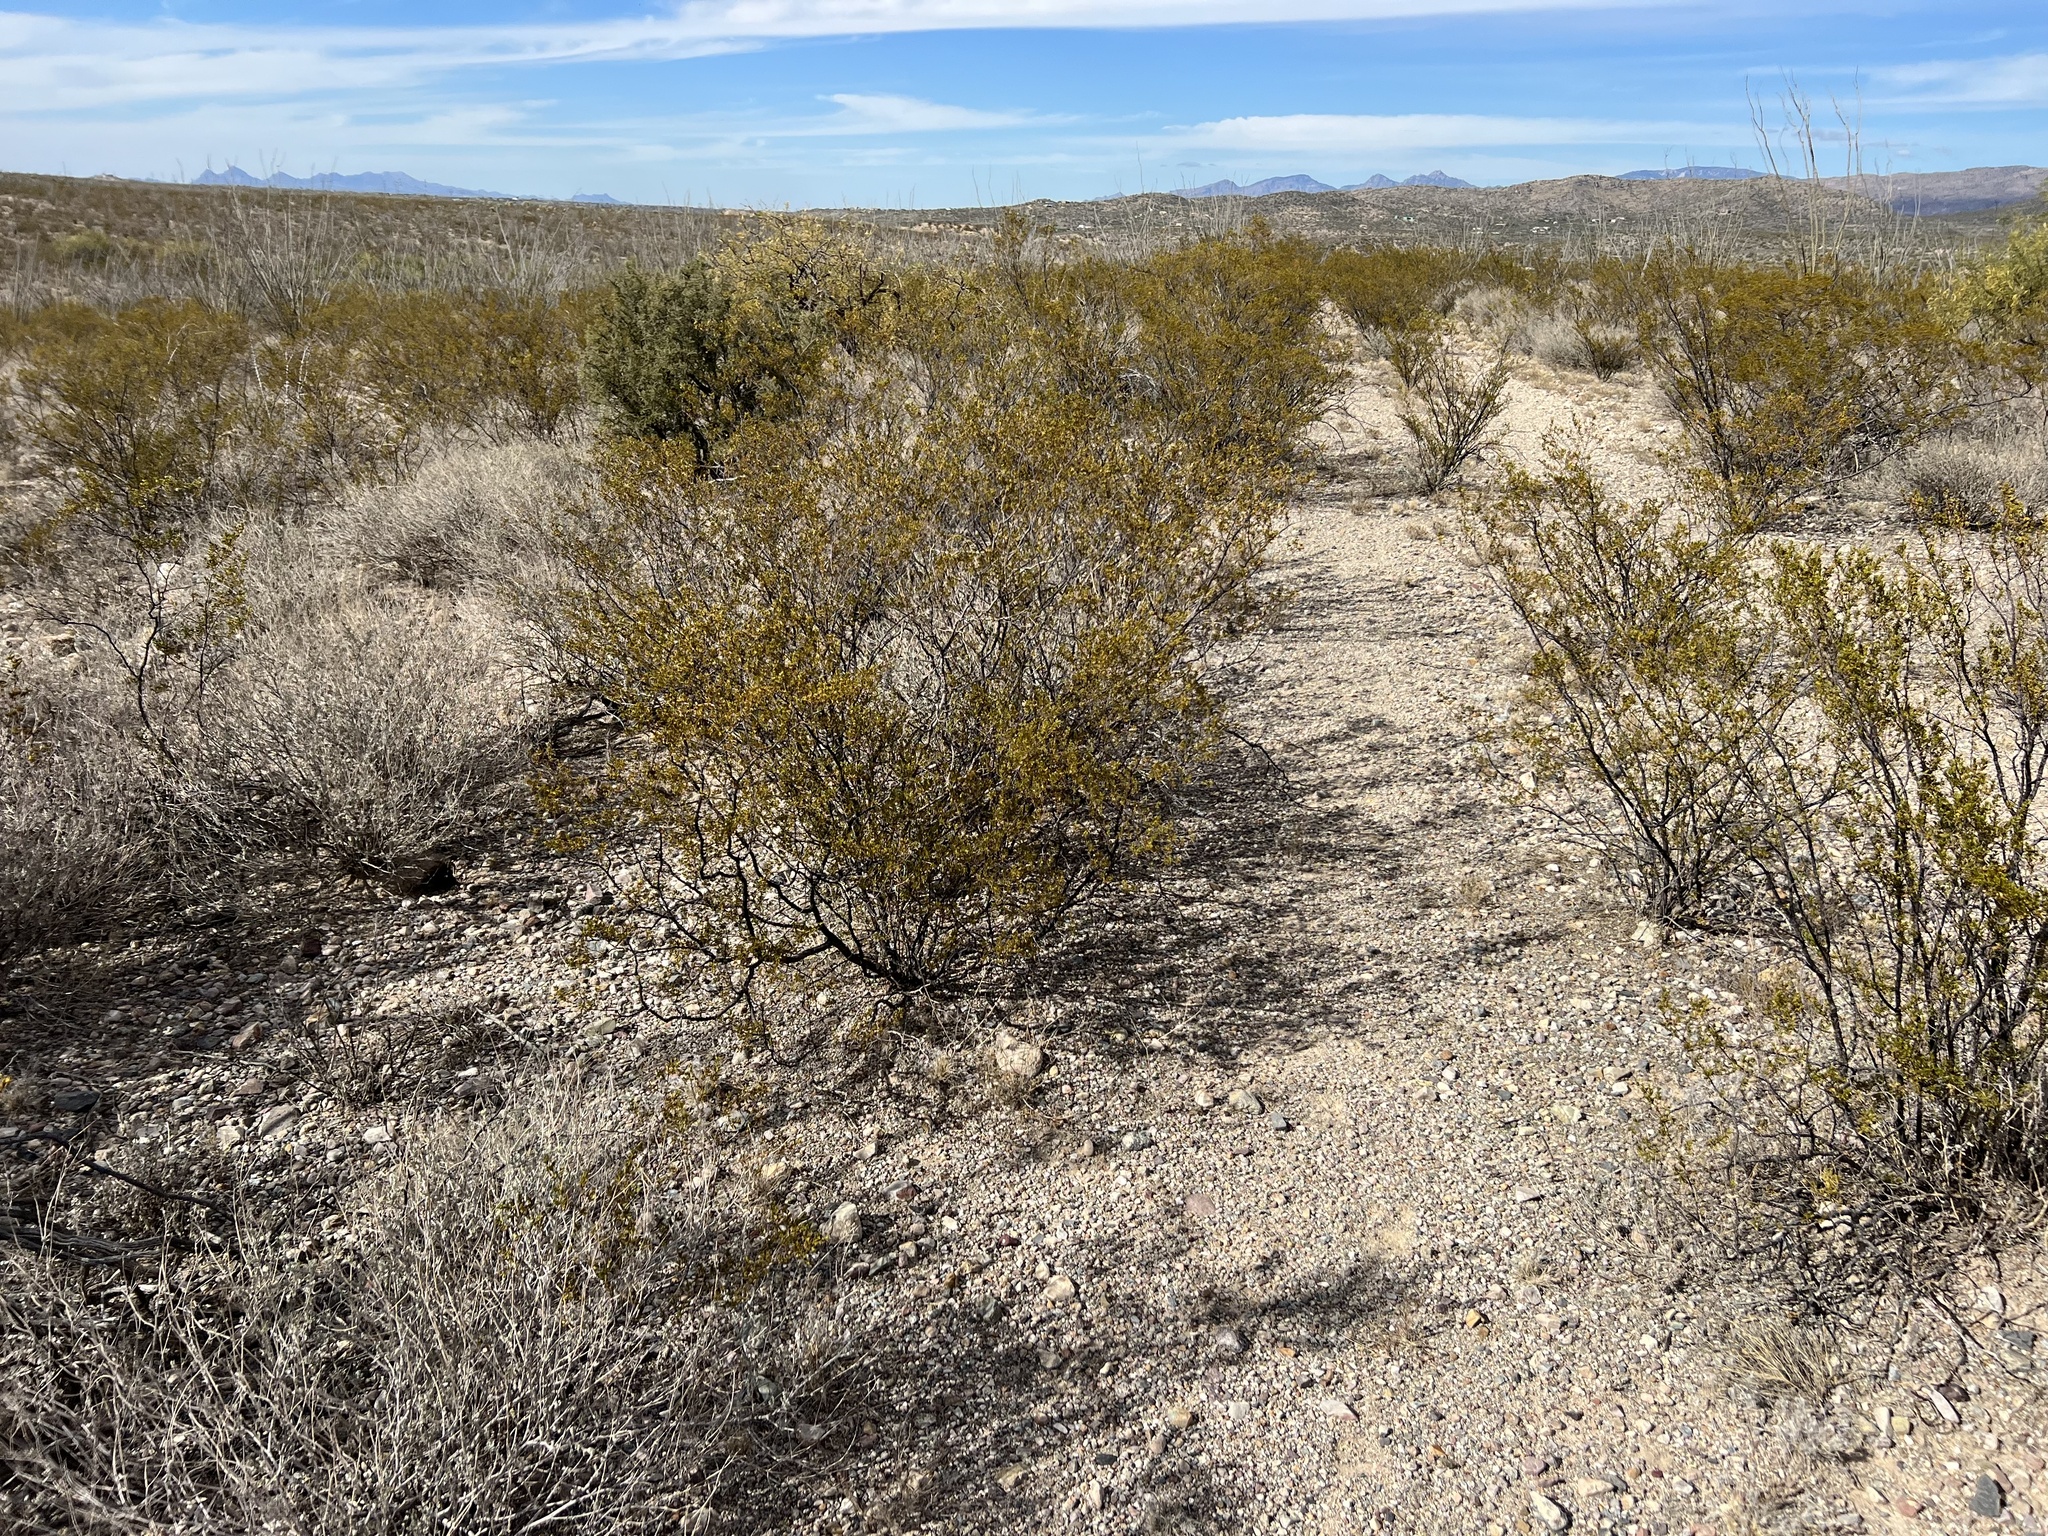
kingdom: Plantae
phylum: Tracheophyta
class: Magnoliopsida
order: Zygophyllales
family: Zygophyllaceae
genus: Larrea
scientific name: Larrea tridentata
